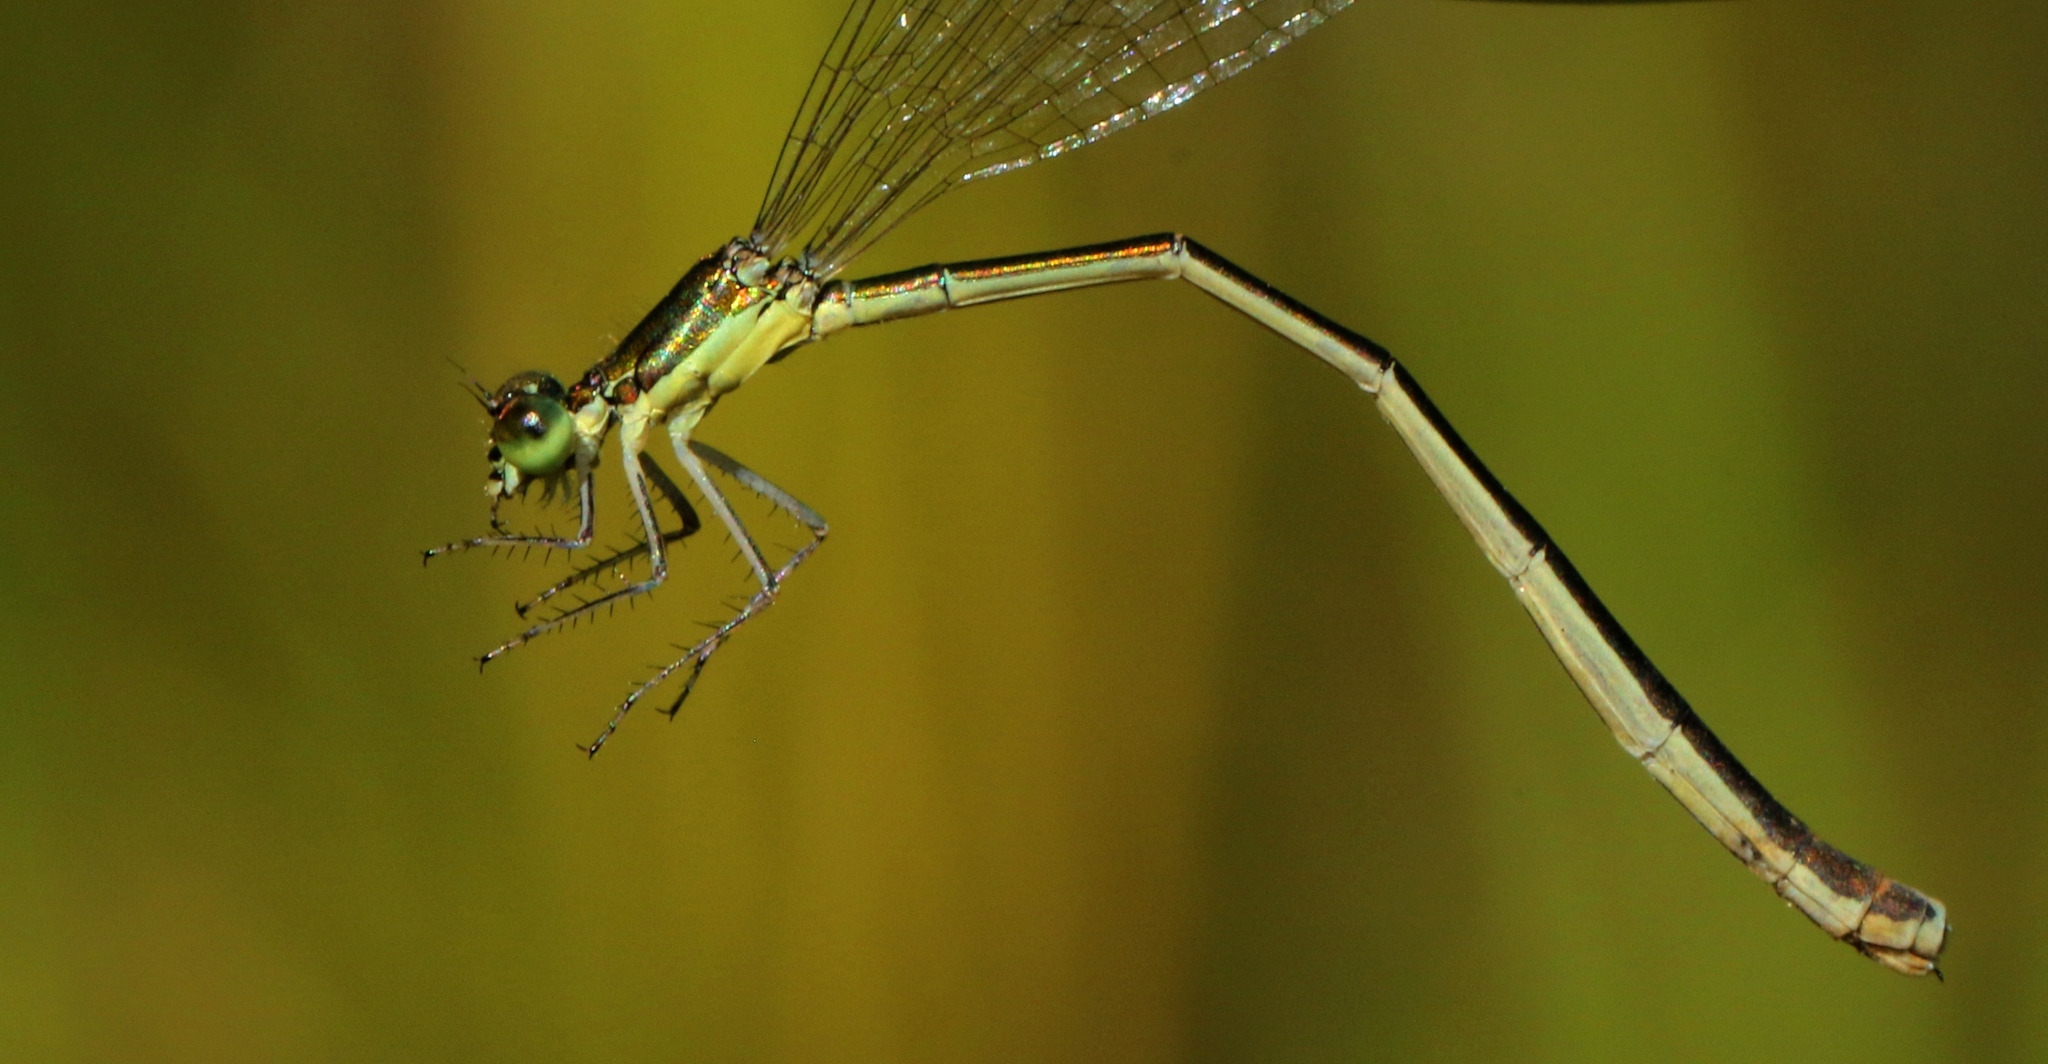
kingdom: Animalia
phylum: Arthropoda
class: Insecta
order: Odonata
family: Coenagrionidae
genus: Nehalennia
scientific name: Nehalennia irene
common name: Sedge sprite
